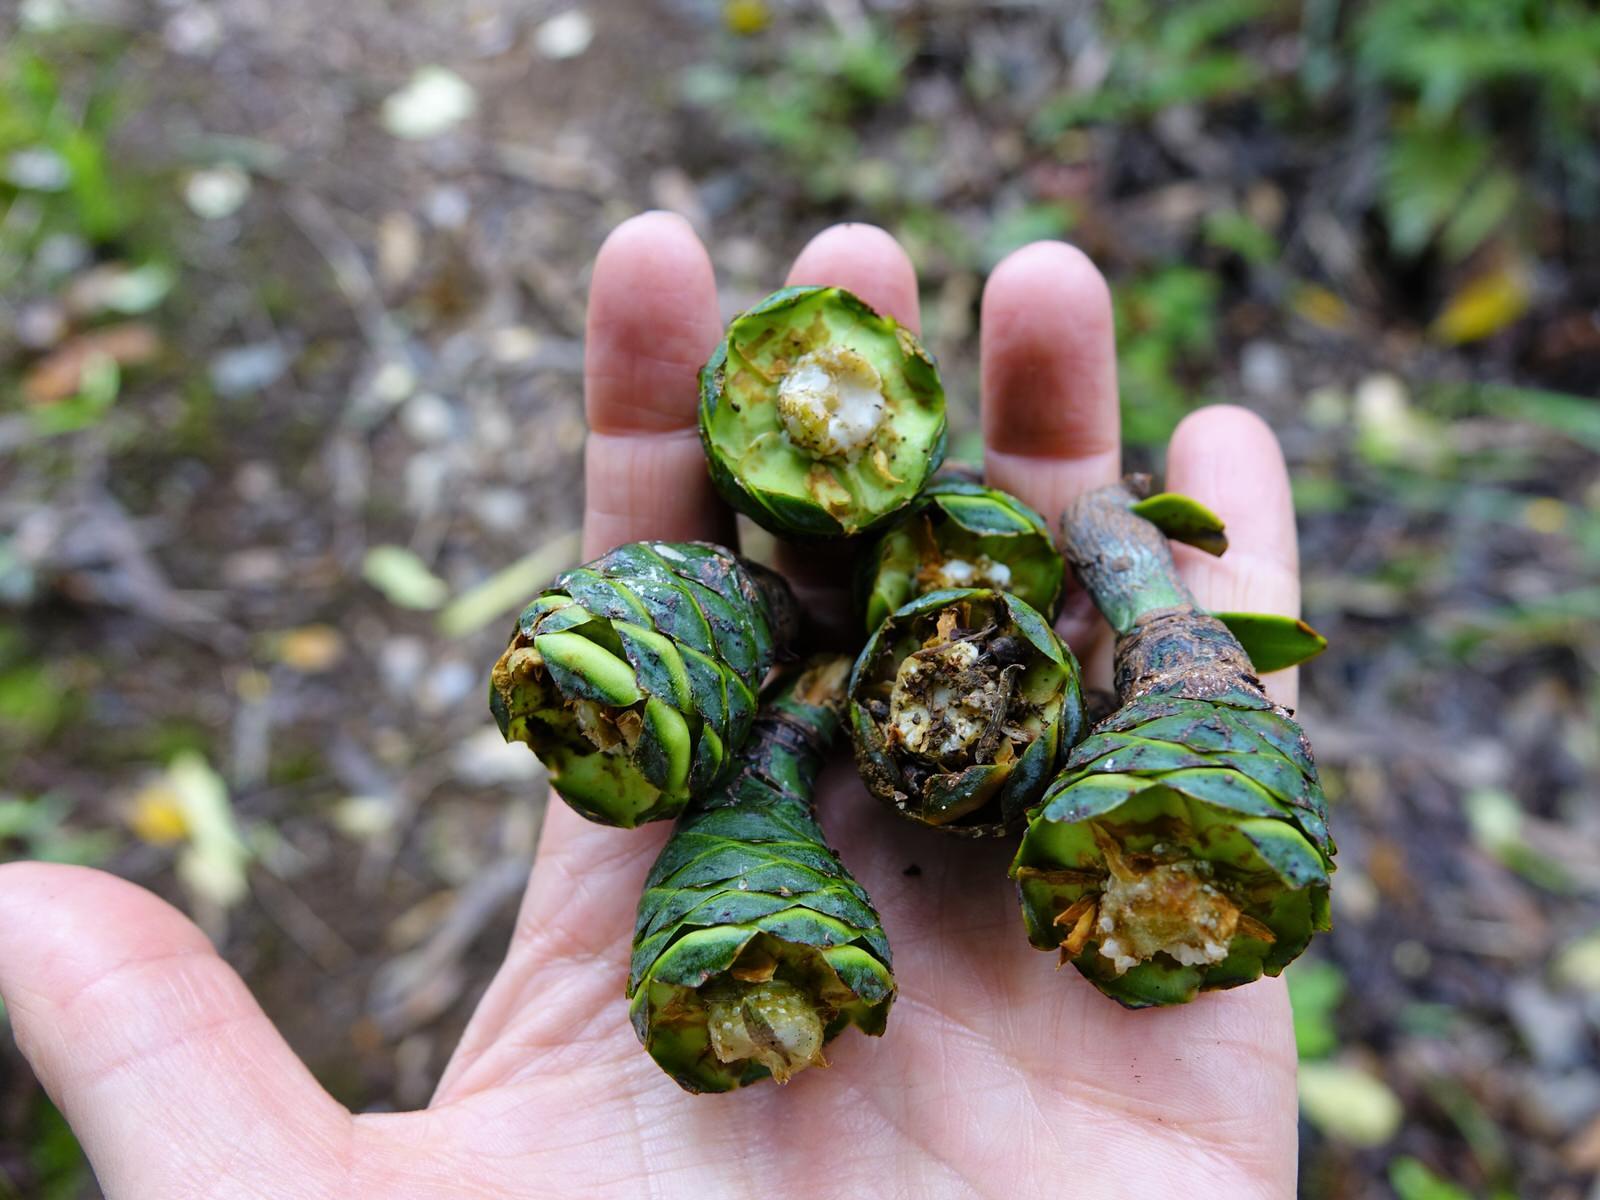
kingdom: Plantae
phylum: Tracheophyta
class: Pinopsida
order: Pinales
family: Araucariaceae
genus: Agathis
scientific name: Agathis australis
